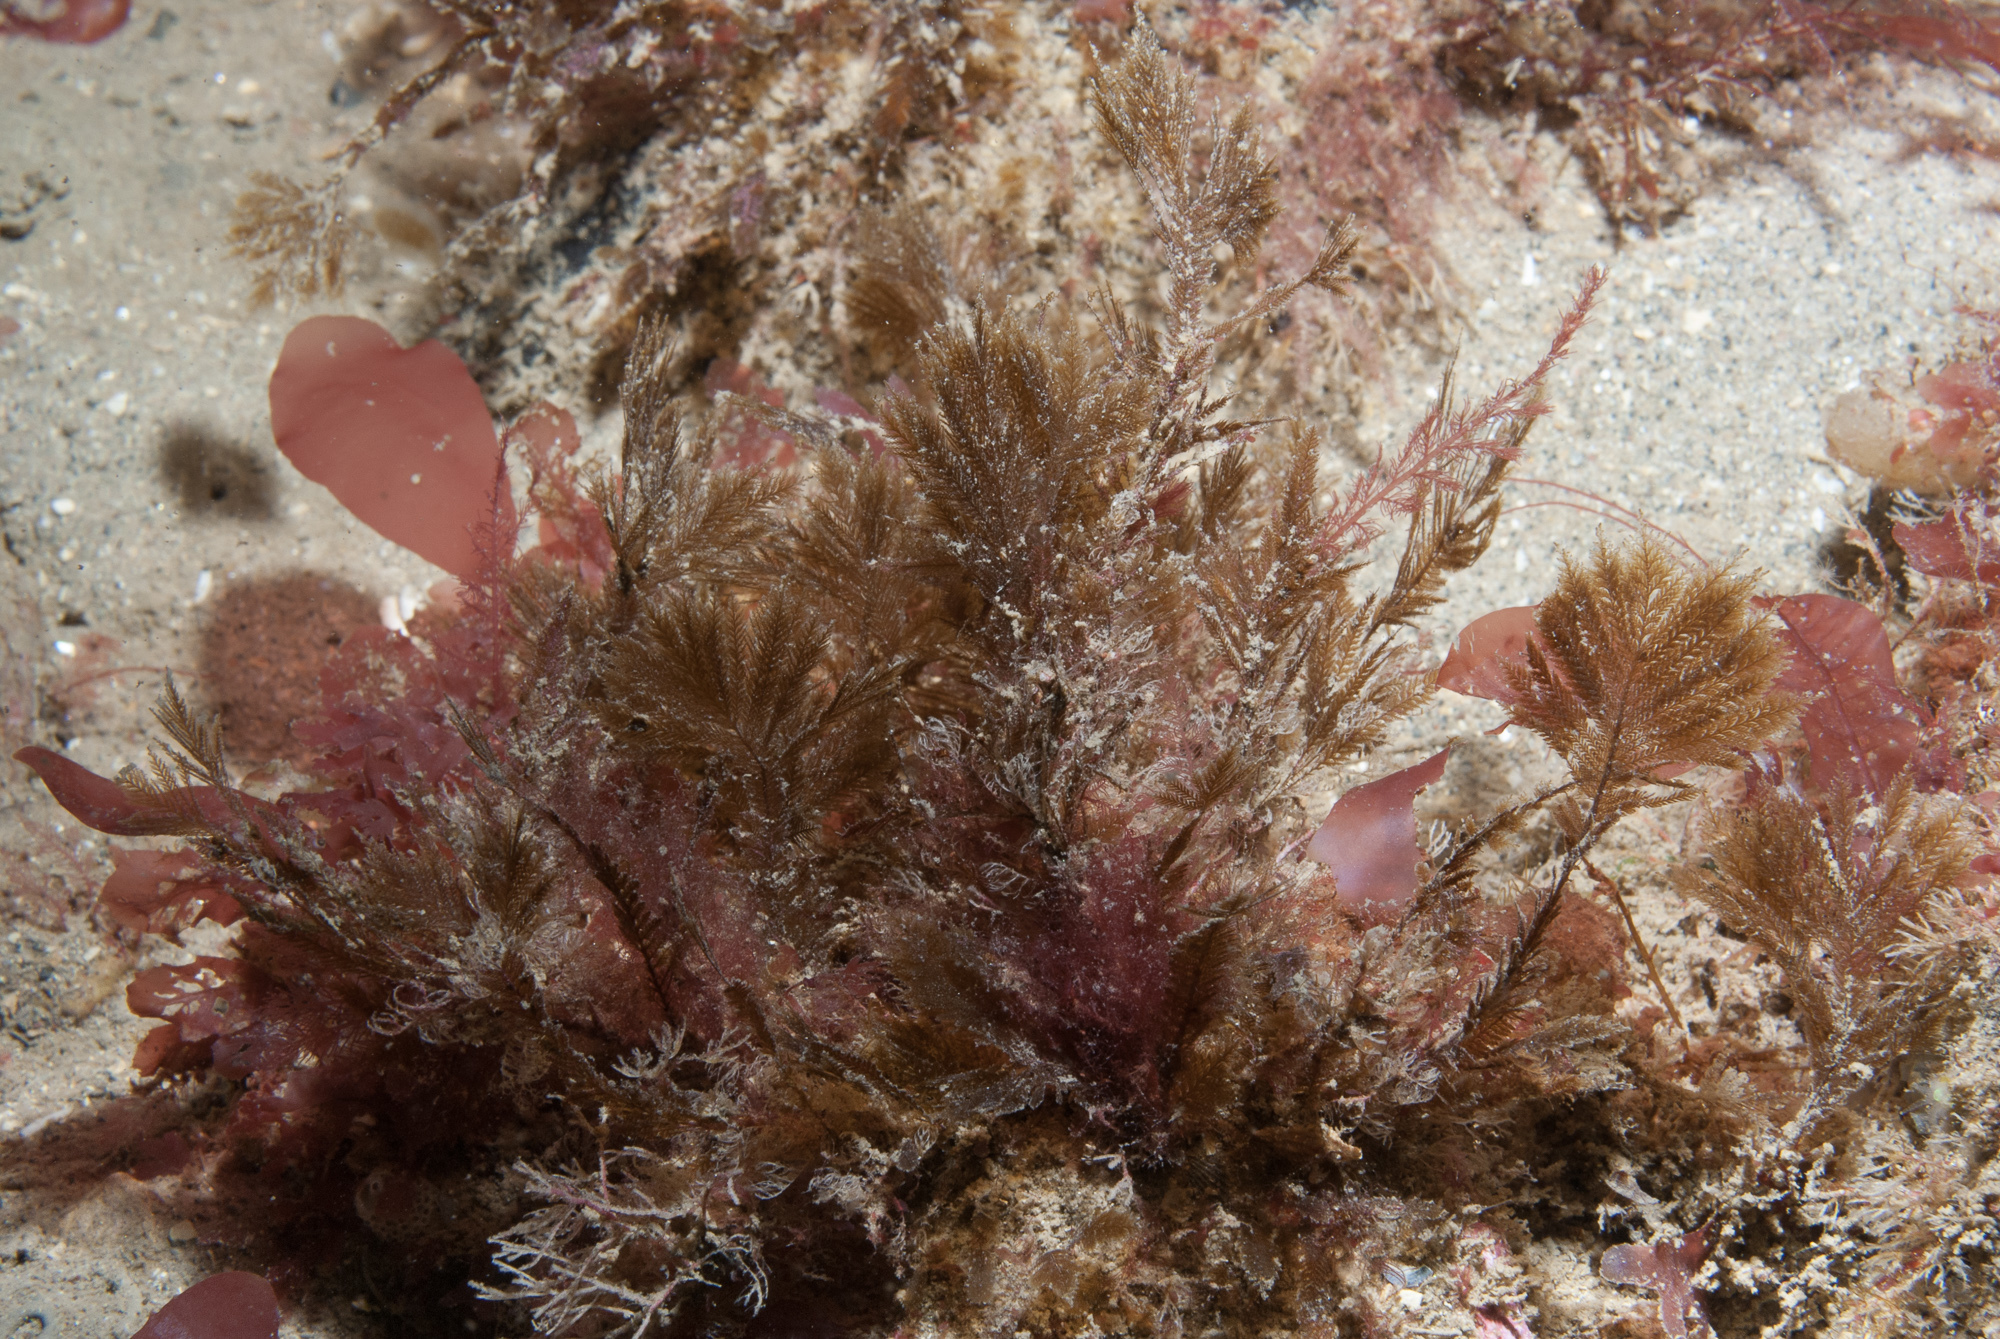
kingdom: Chromista
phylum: Ochrophyta
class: Phaeophyceae
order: Sphacelariales
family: Stypocaulaceae
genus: Halopteris
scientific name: Halopteris filicina
